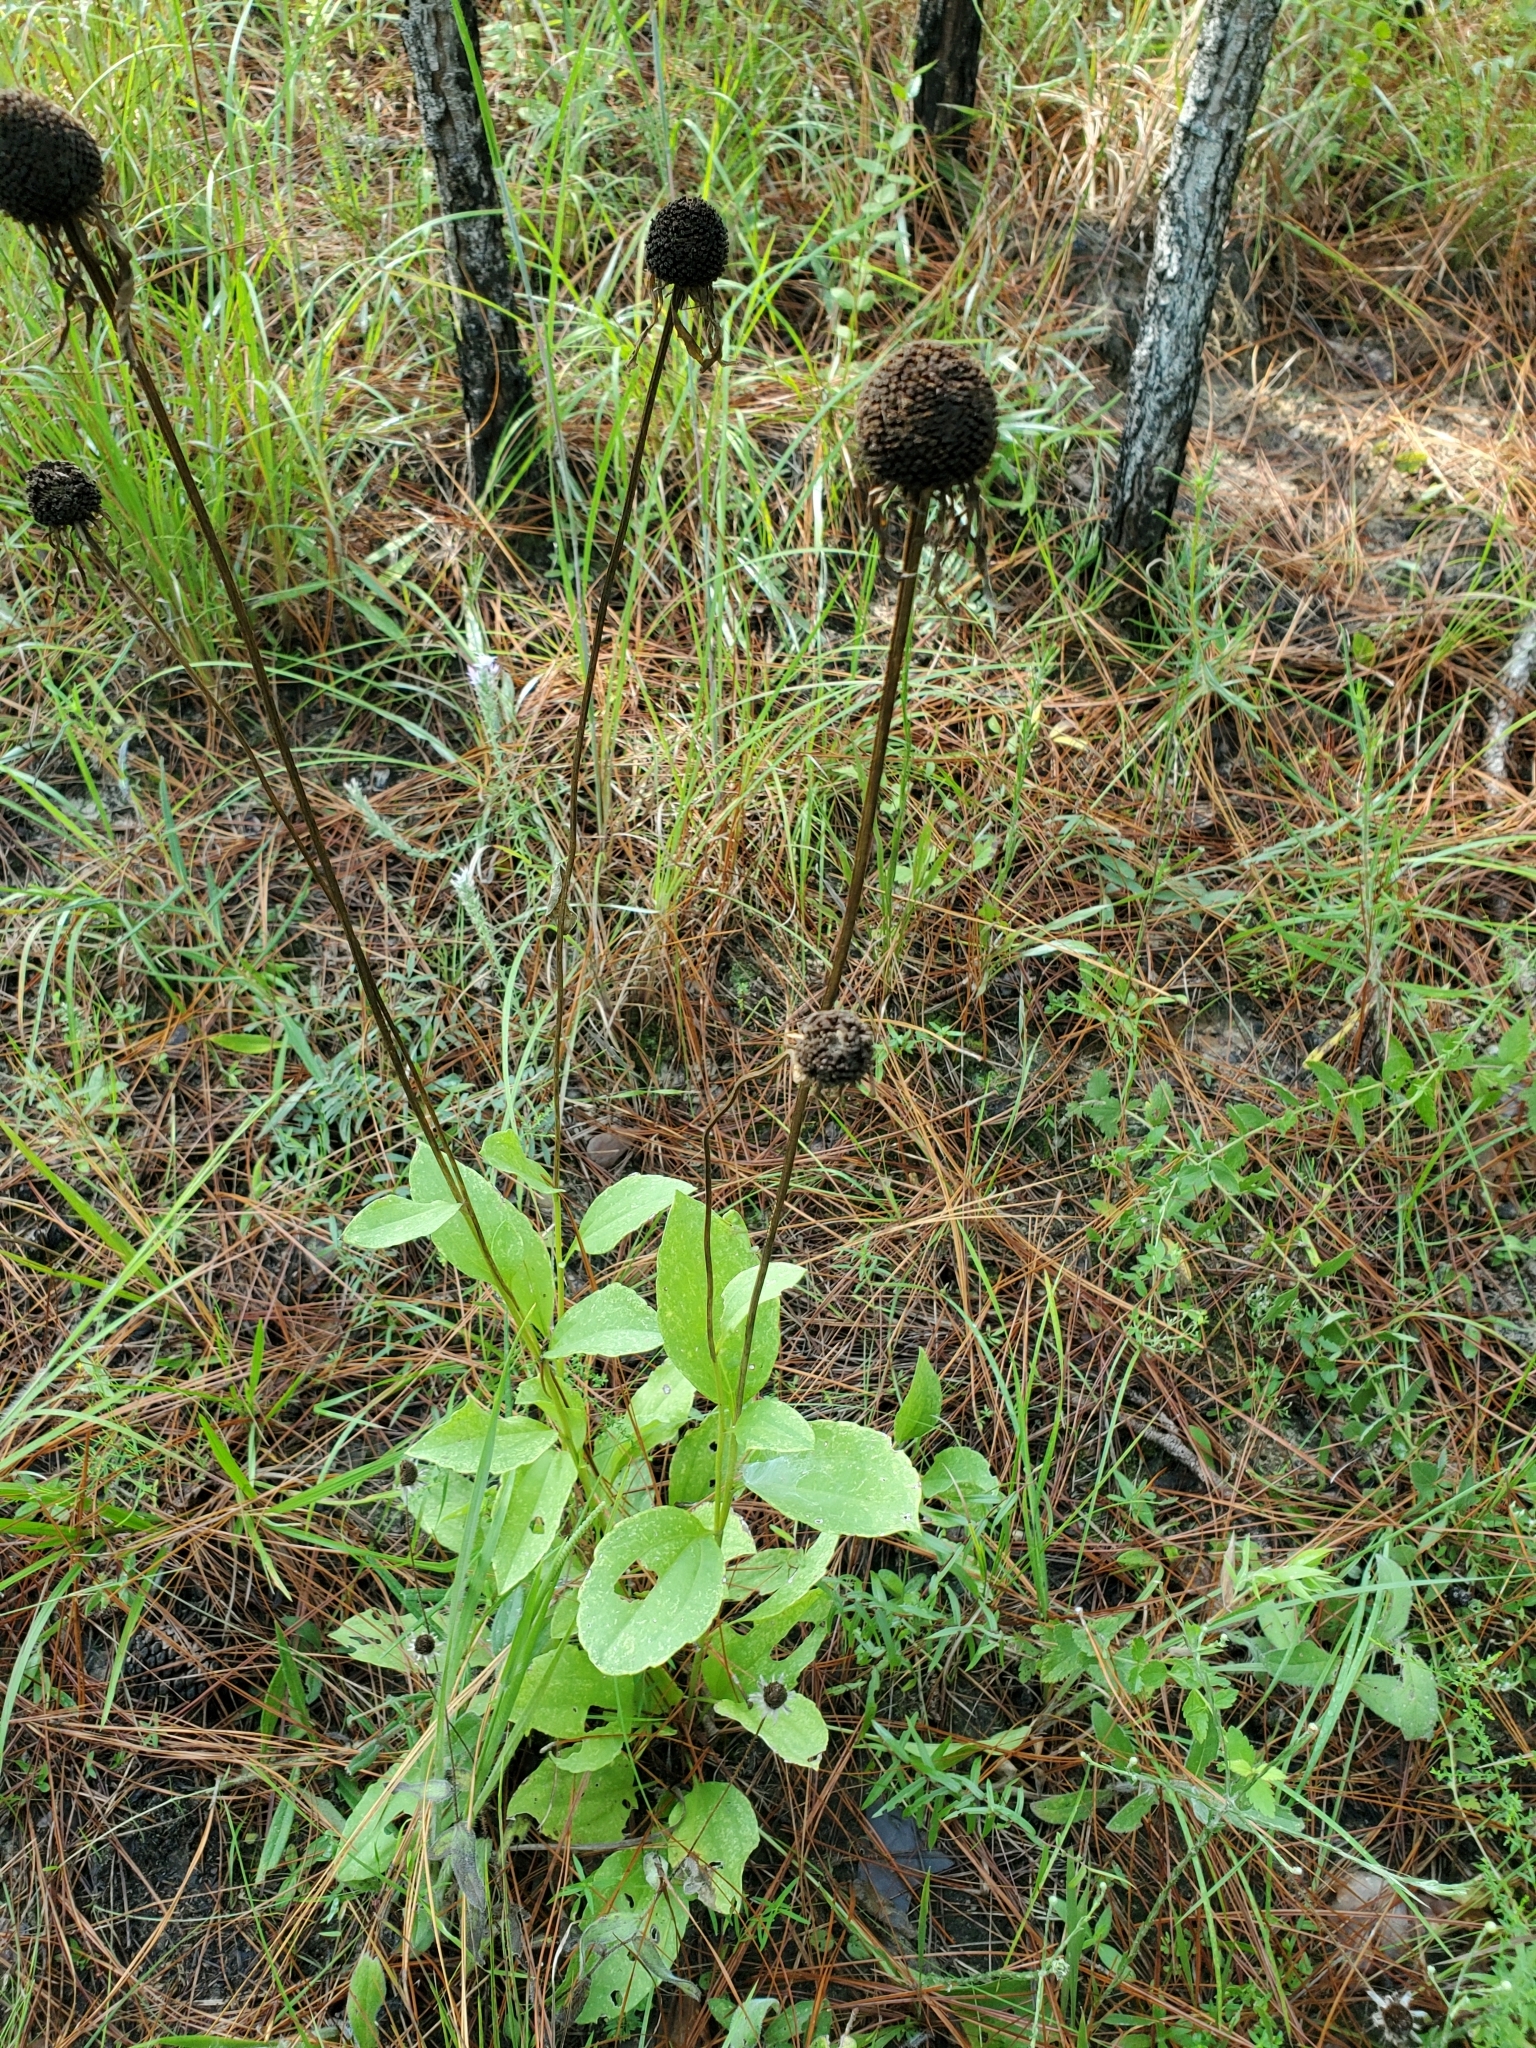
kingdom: Plantae
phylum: Tracheophyta
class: Magnoliopsida
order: Asterales
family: Asteraceae
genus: Rudbeckia
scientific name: Rudbeckia grandiflora
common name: Large-flowered coneflower
